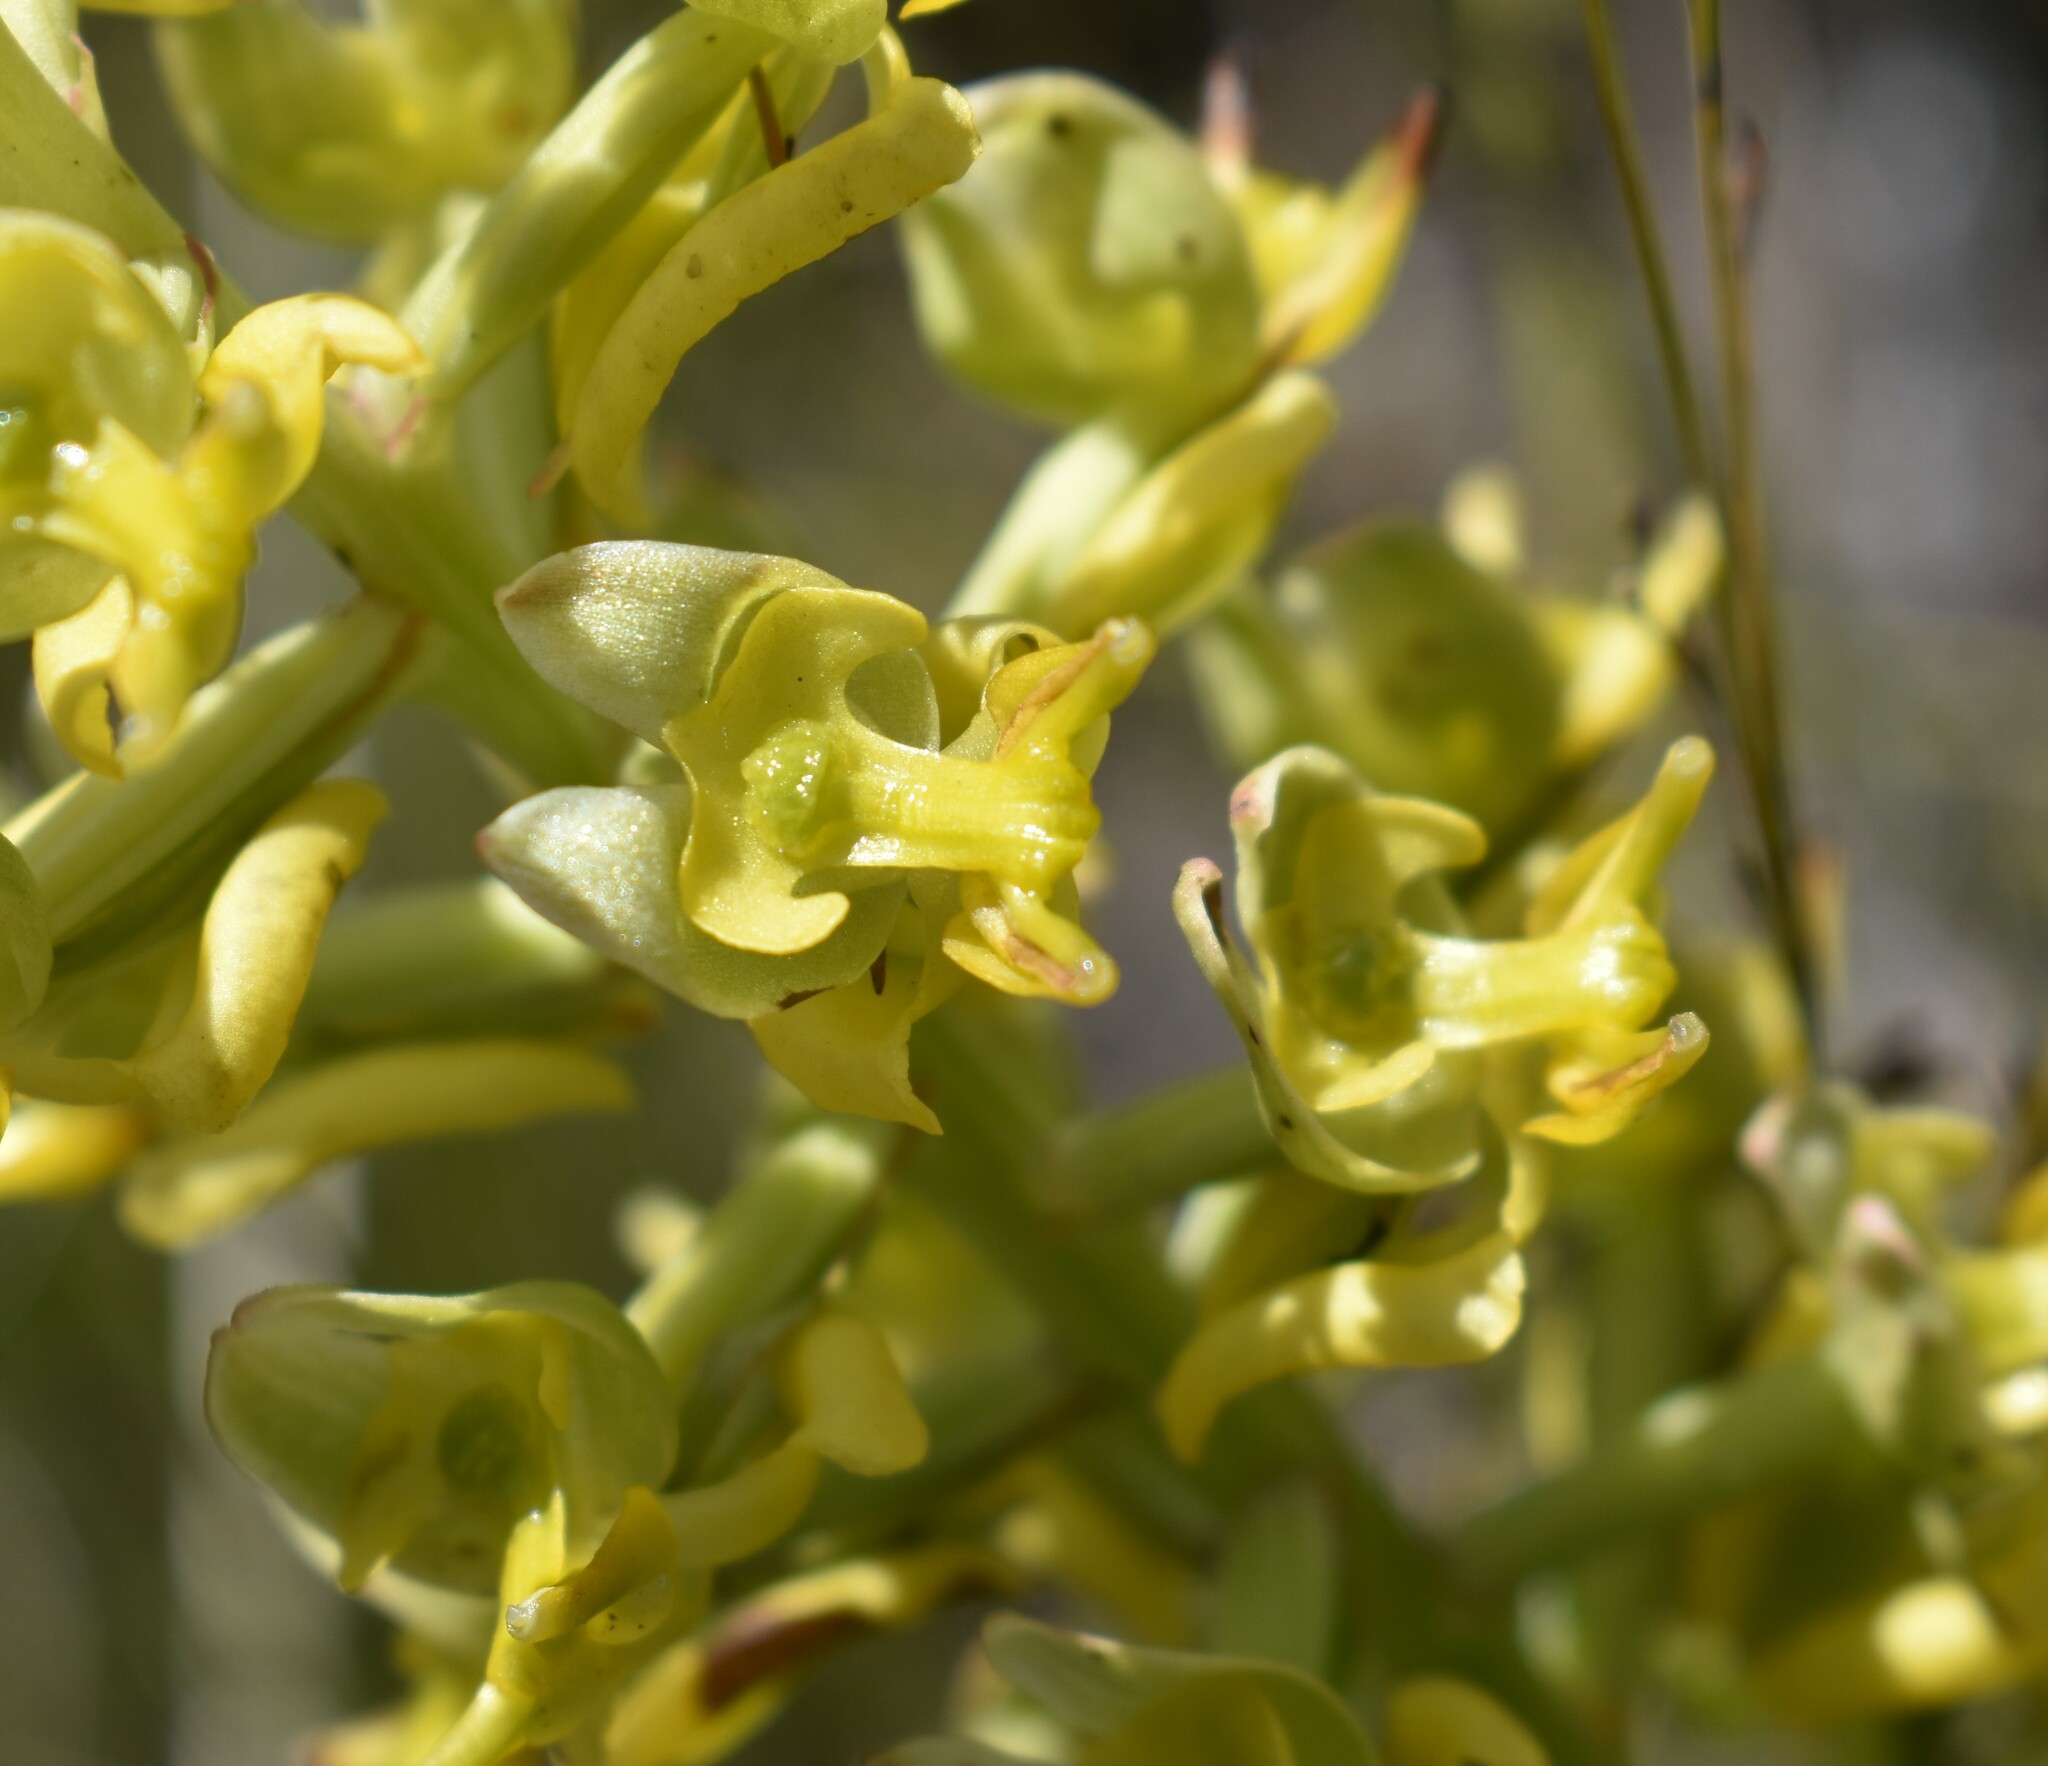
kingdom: Plantae
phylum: Tracheophyta
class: Liliopsida
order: Asparagales
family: Orchidaceae
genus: Ceratandra
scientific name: Ceratandra atrata
